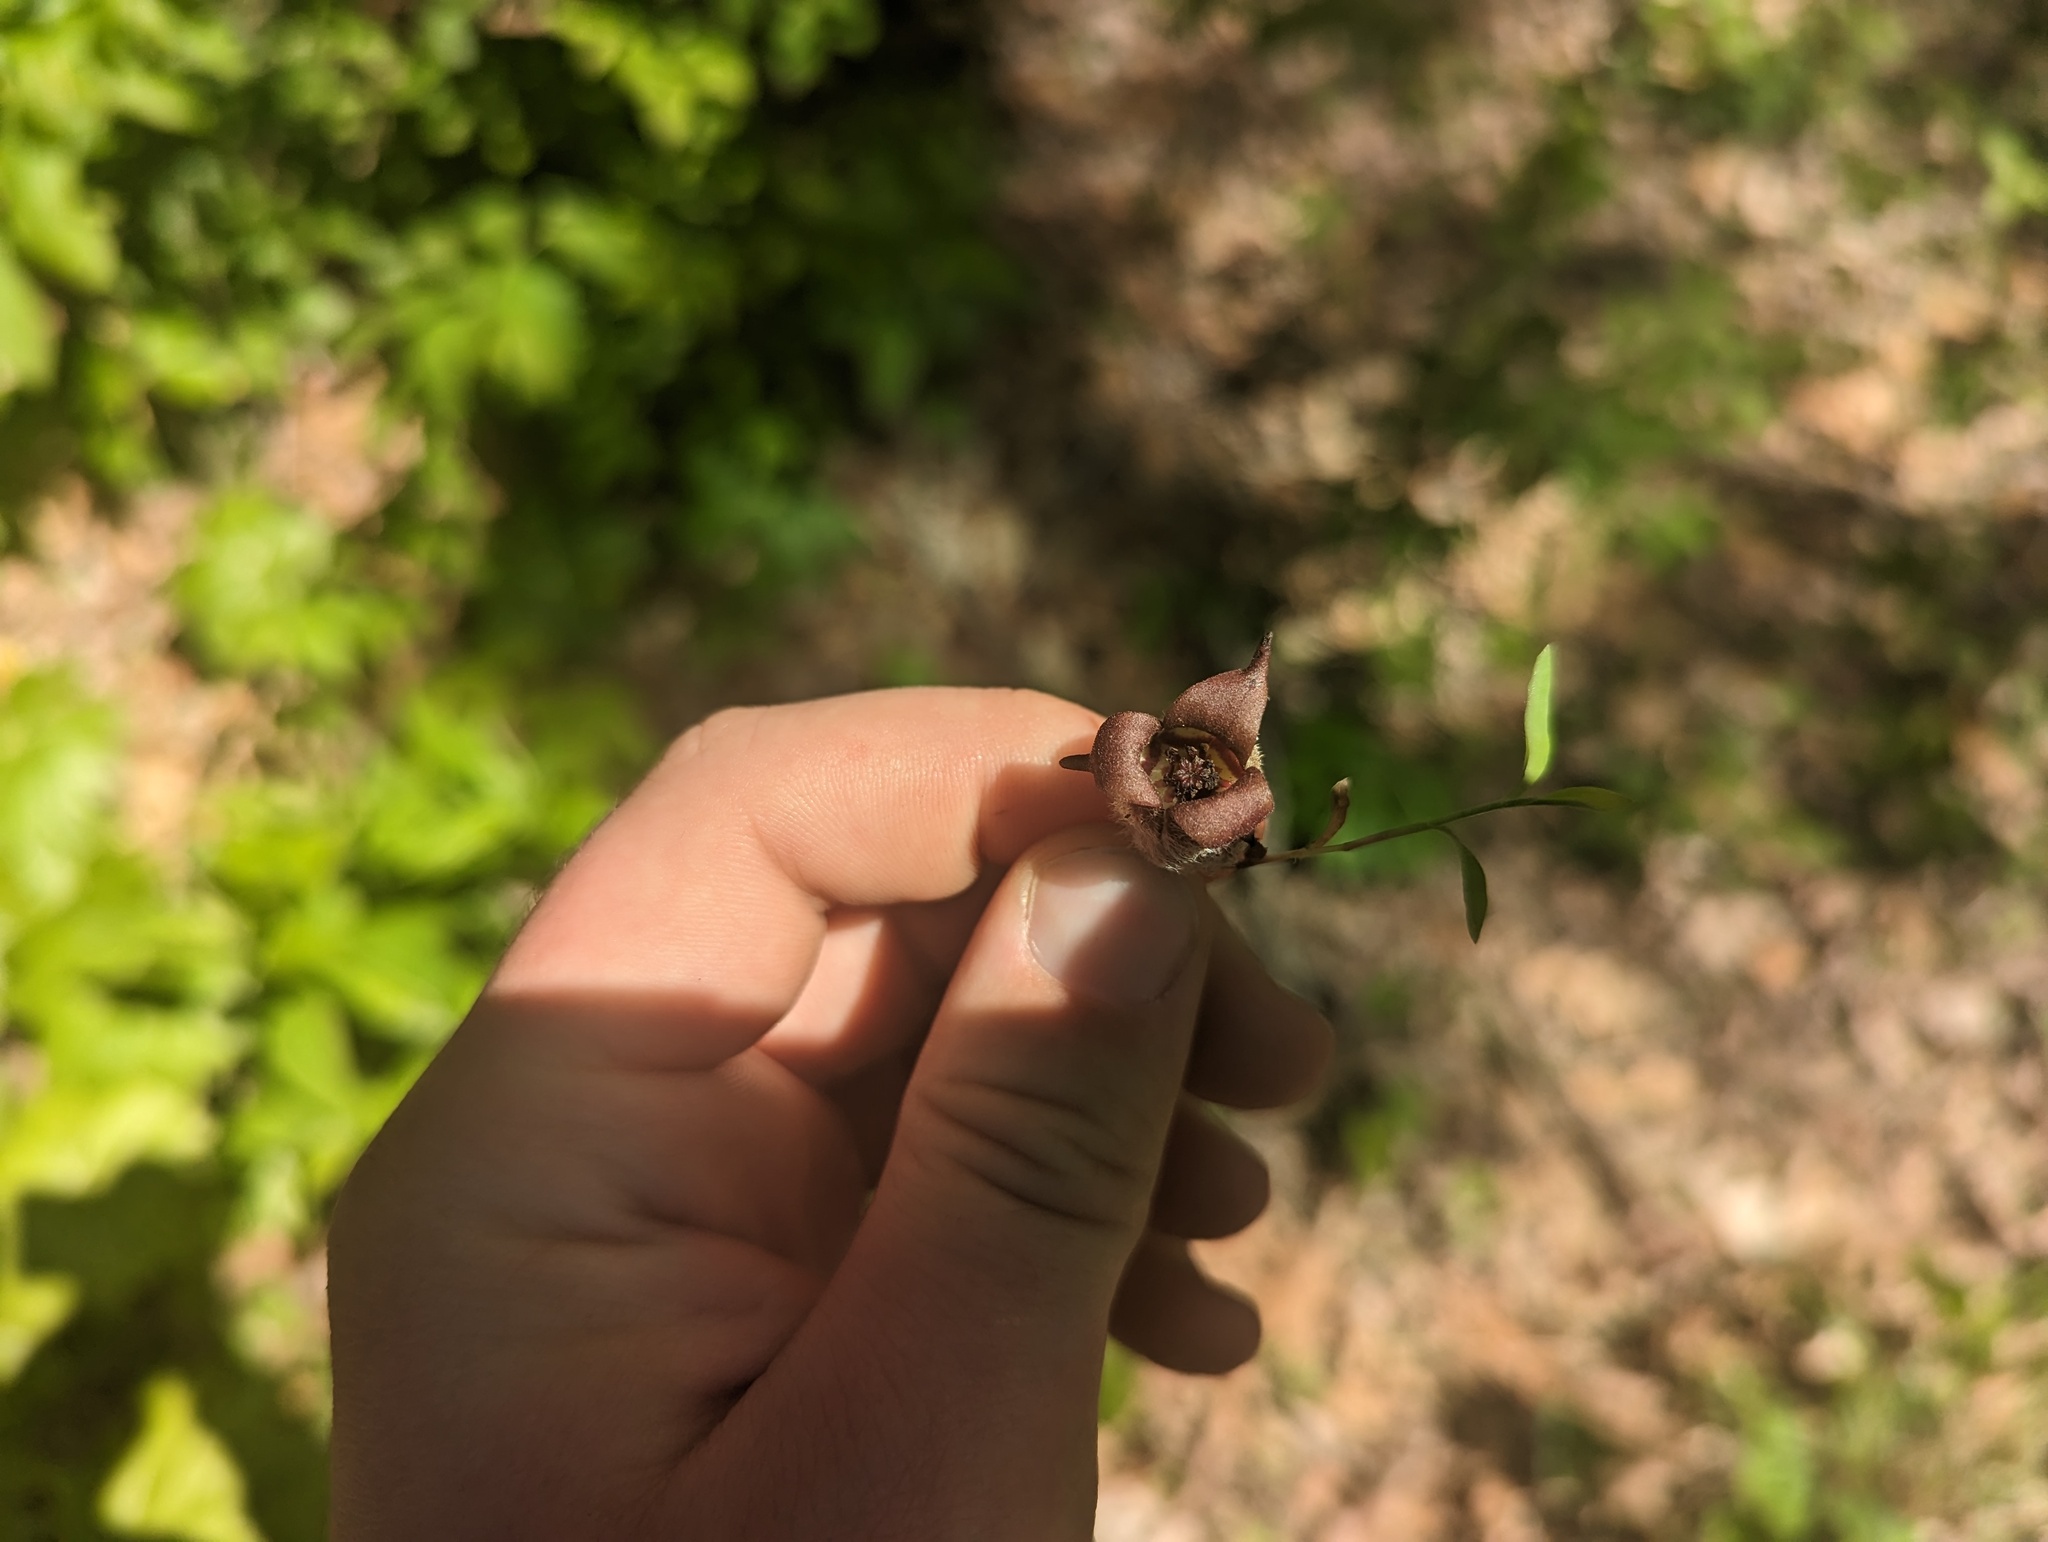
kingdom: Plantae
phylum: Tracheophyta
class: Magnoliopsida
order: Piperales
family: Aristolochiaceae
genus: Asarum
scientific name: Asarum canadense
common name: Wild ginger
